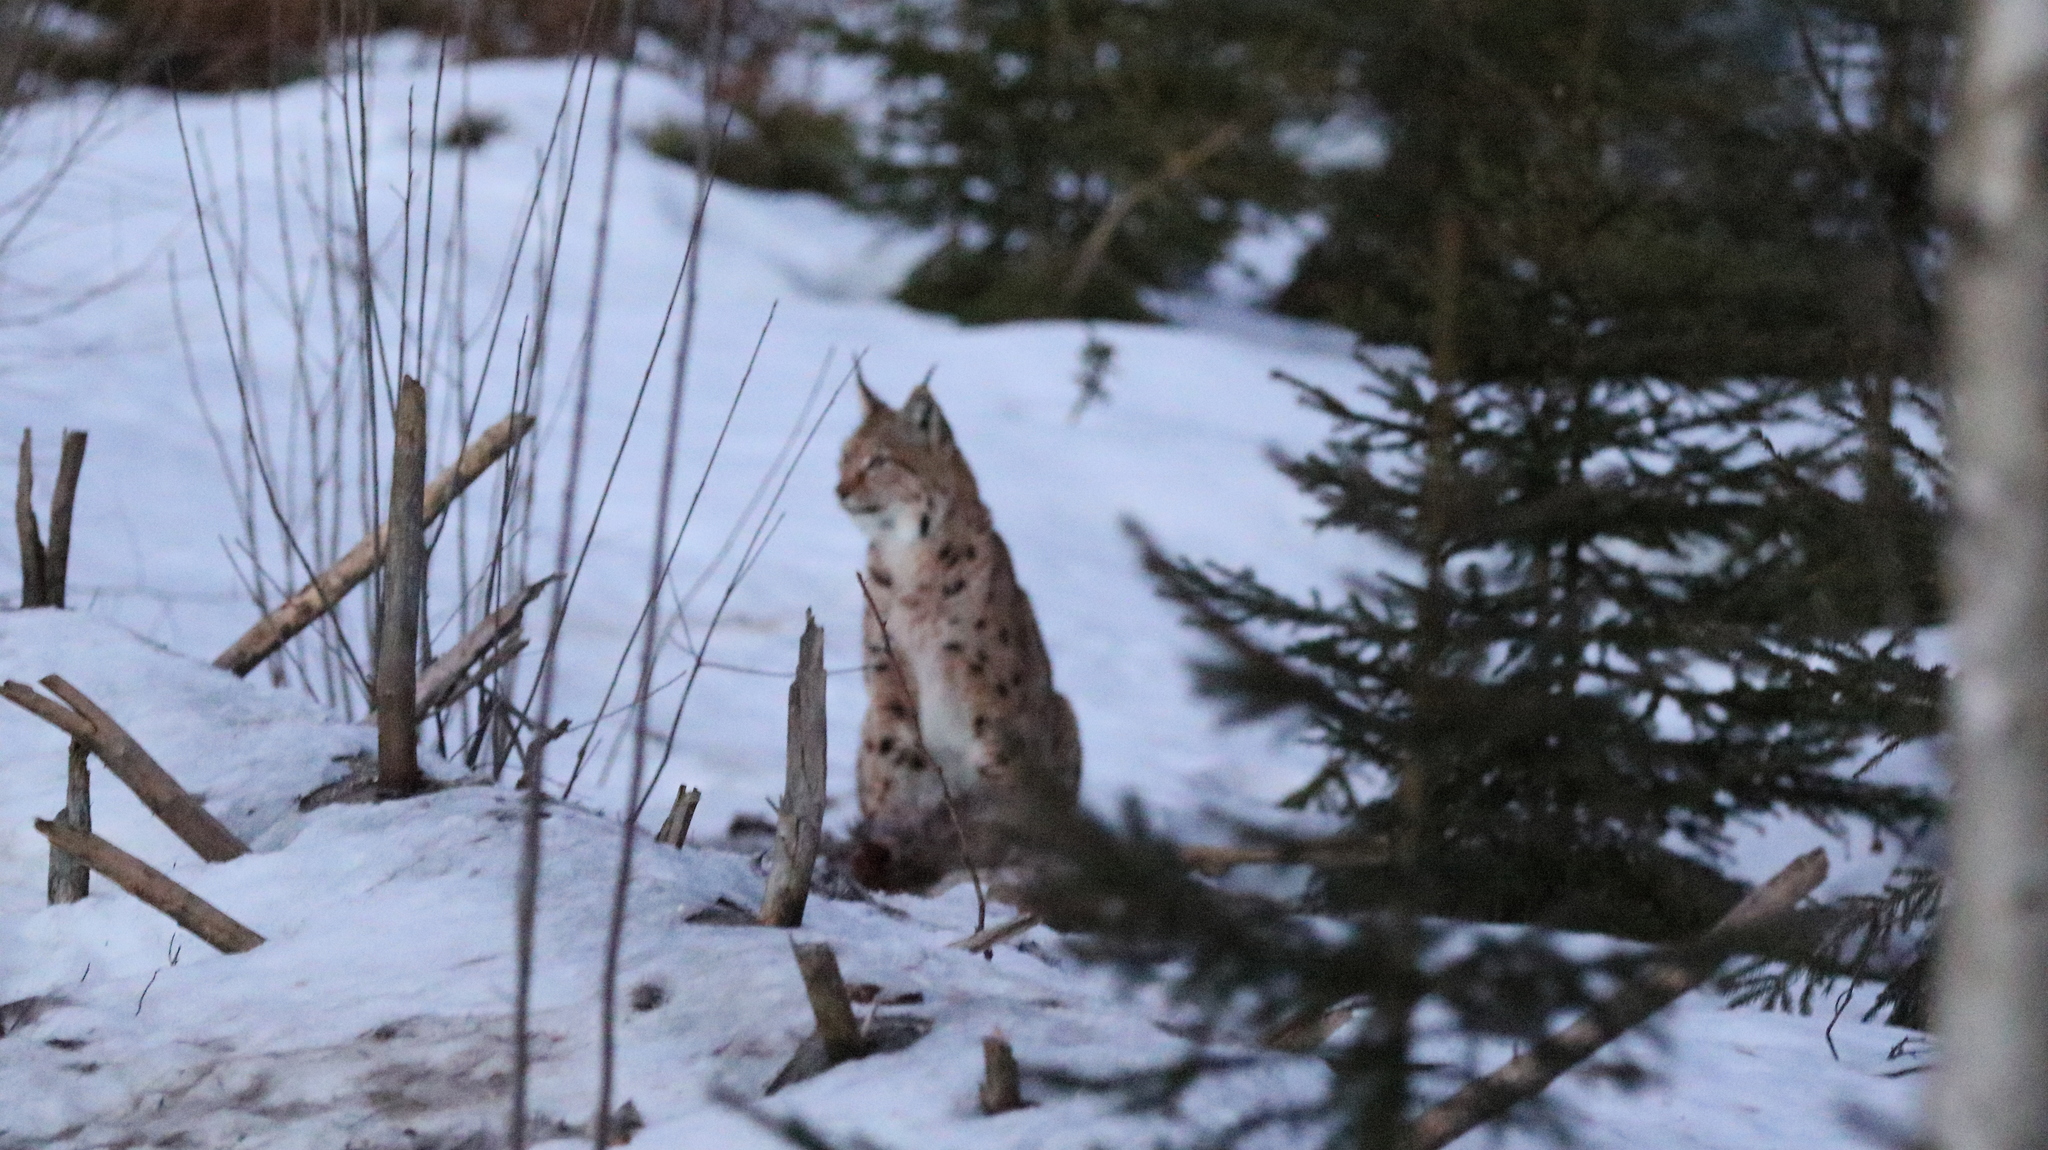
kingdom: Animalia
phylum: Chordata
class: Mammalia
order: Carnivora
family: Felidae
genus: Lynx
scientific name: Lynx lynx
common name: Eurasian lynx
